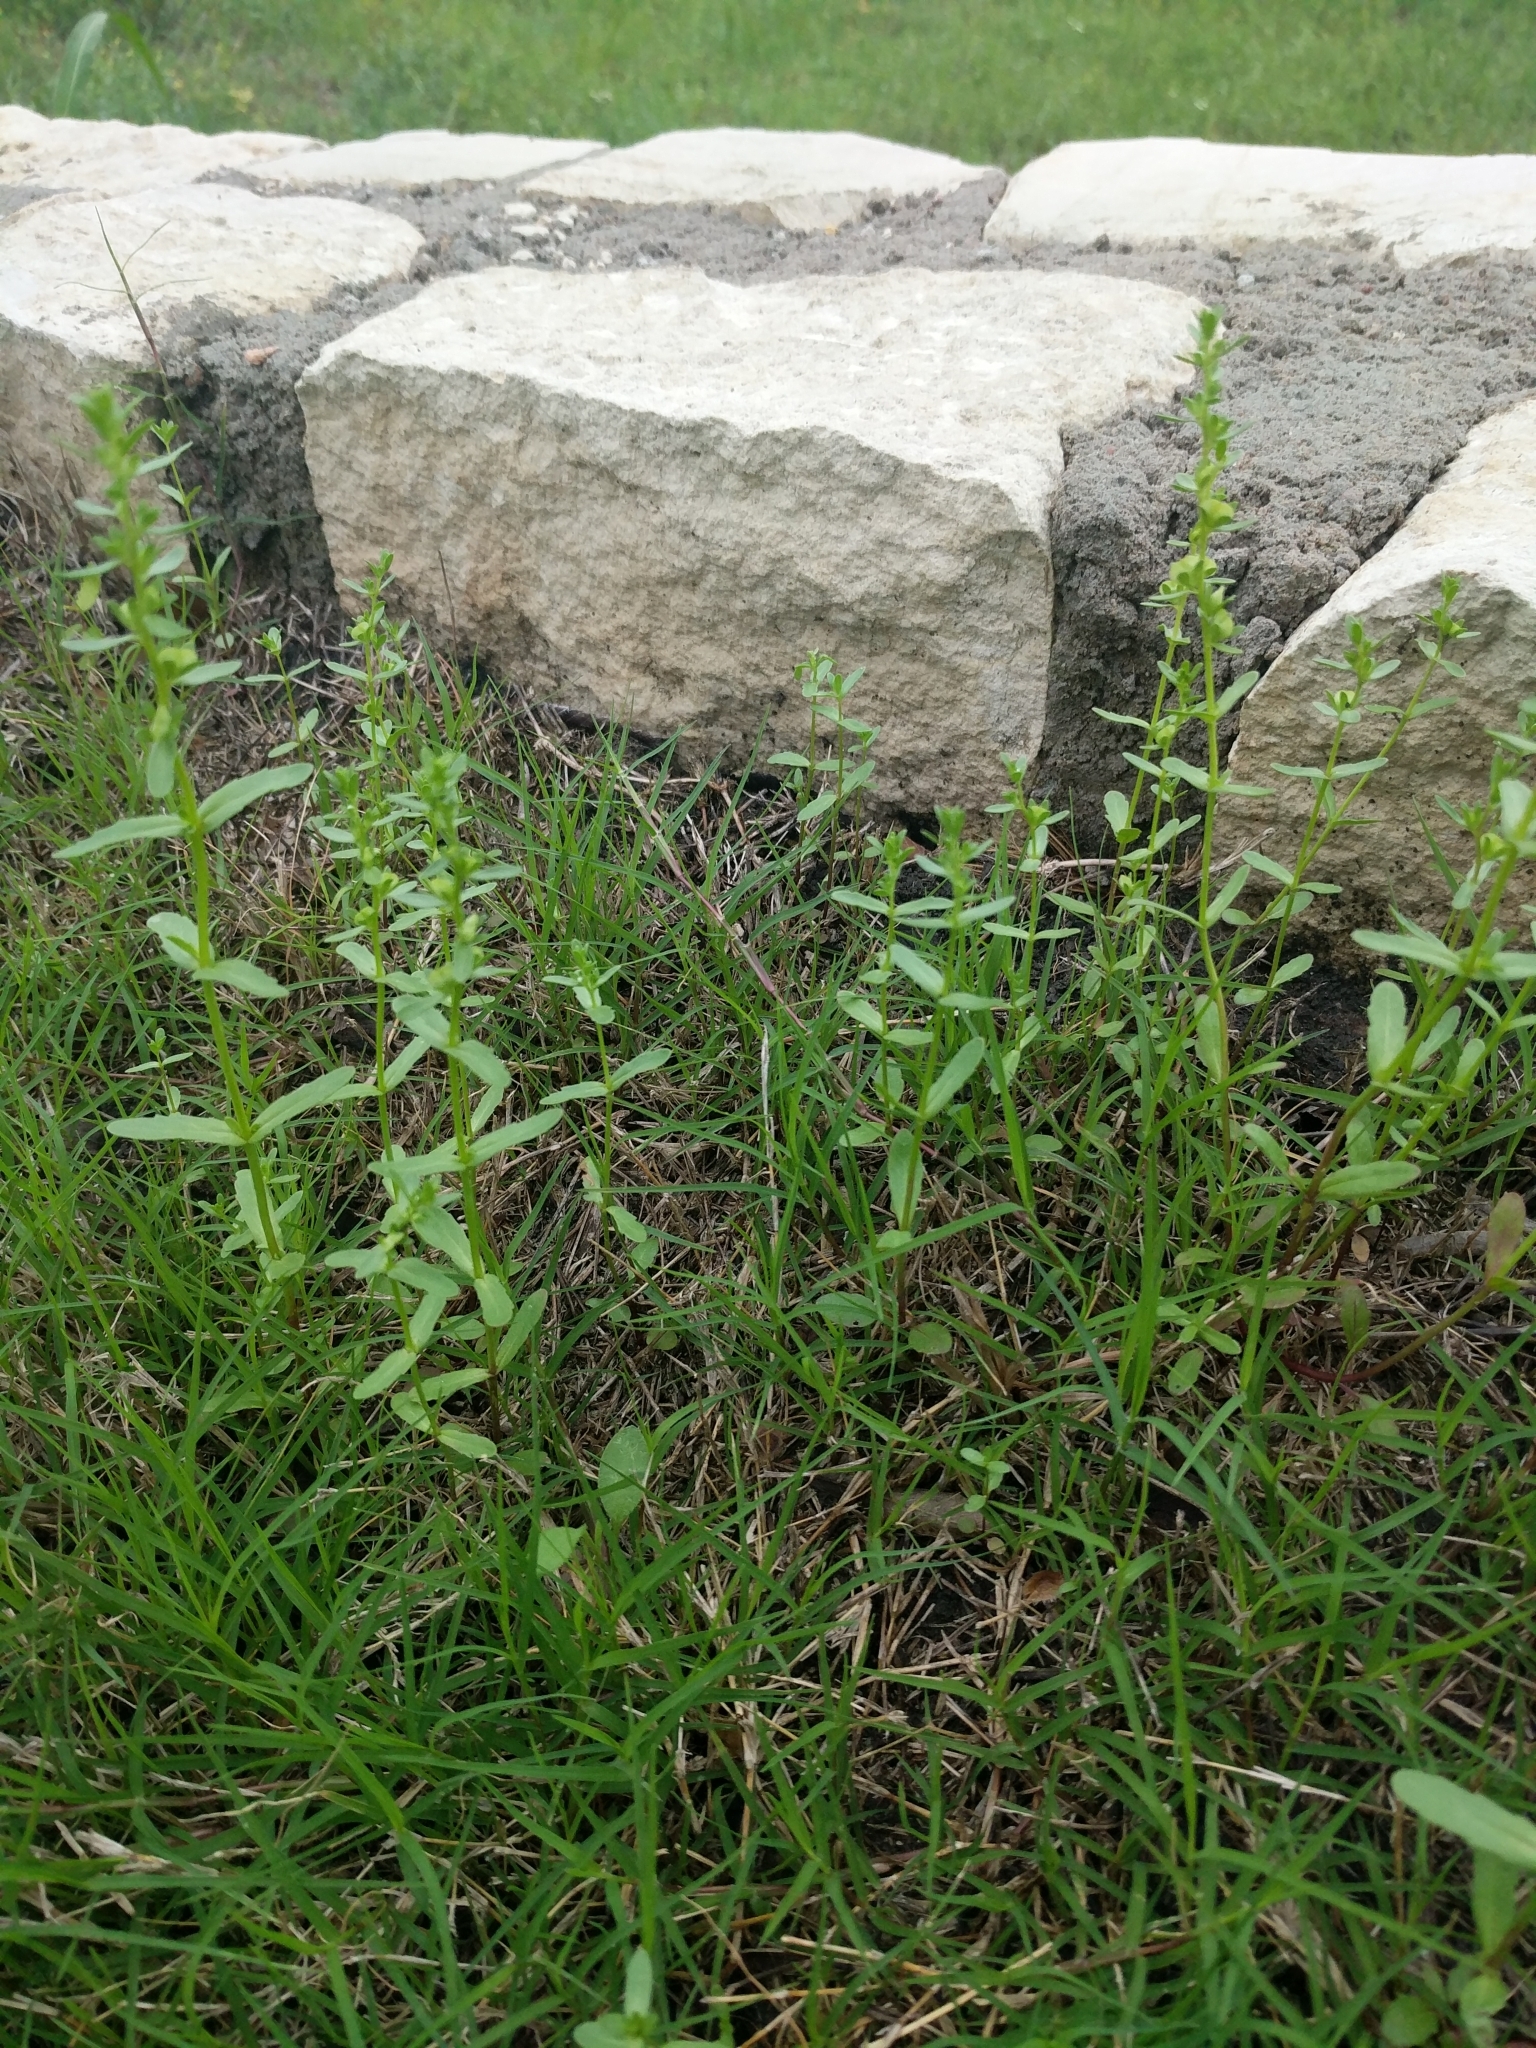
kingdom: Plantae
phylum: Tracheophyta
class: Magnoliopsida
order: Lamiales
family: Plantaginaceae
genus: Veronica
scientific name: Veronica peregrina
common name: Neckweed
